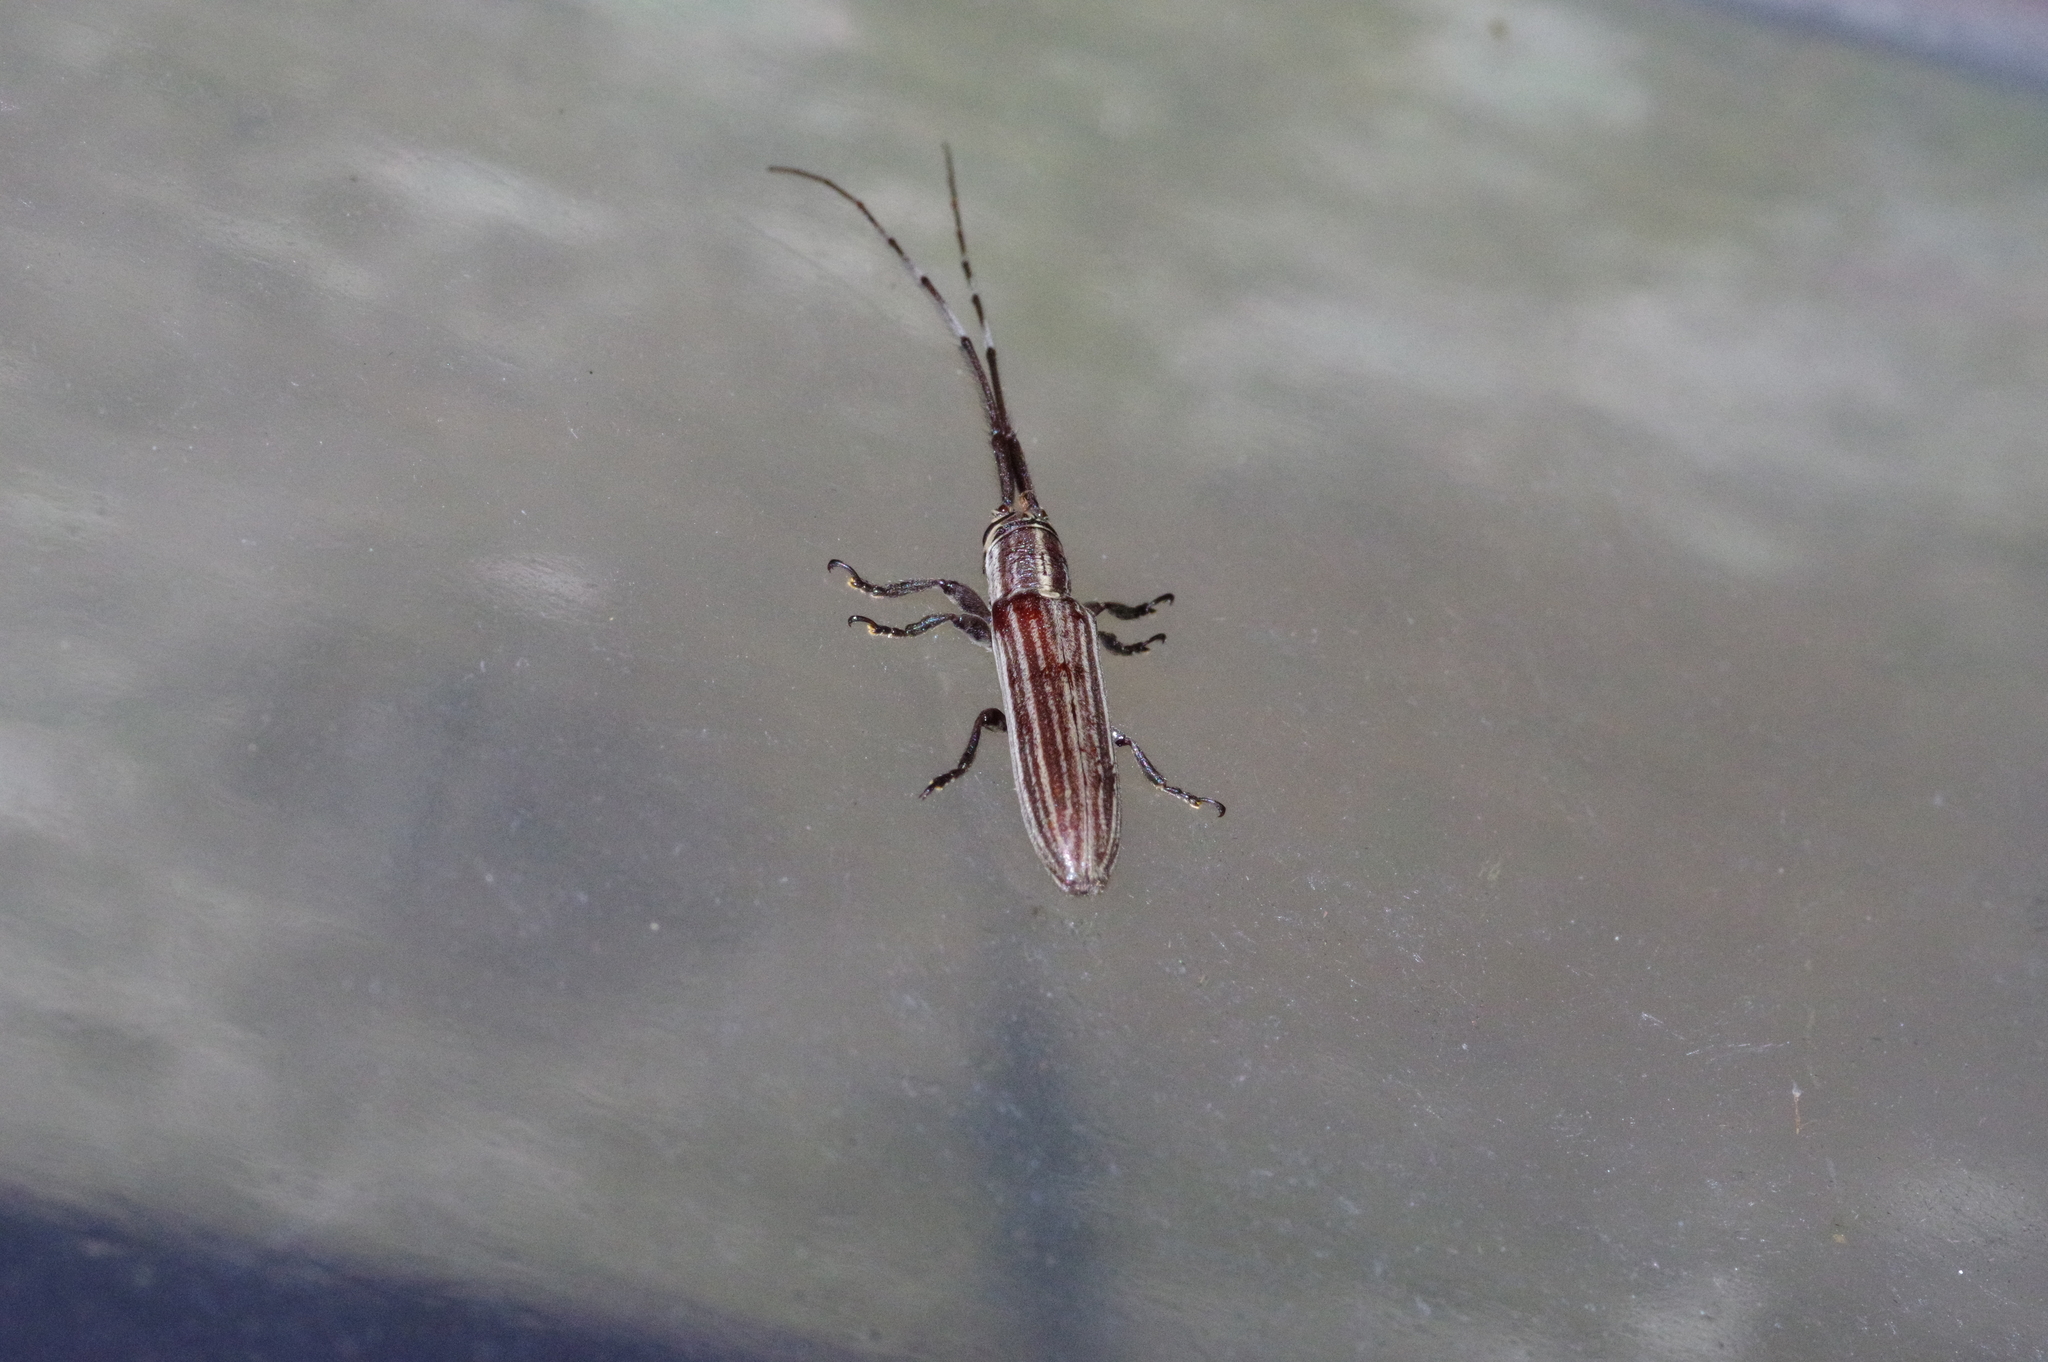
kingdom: Animalia
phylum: Arthropoda
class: Insecta
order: Coleoptera
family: Cerambycidae
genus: Pothyne
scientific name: Pothyne annulata
